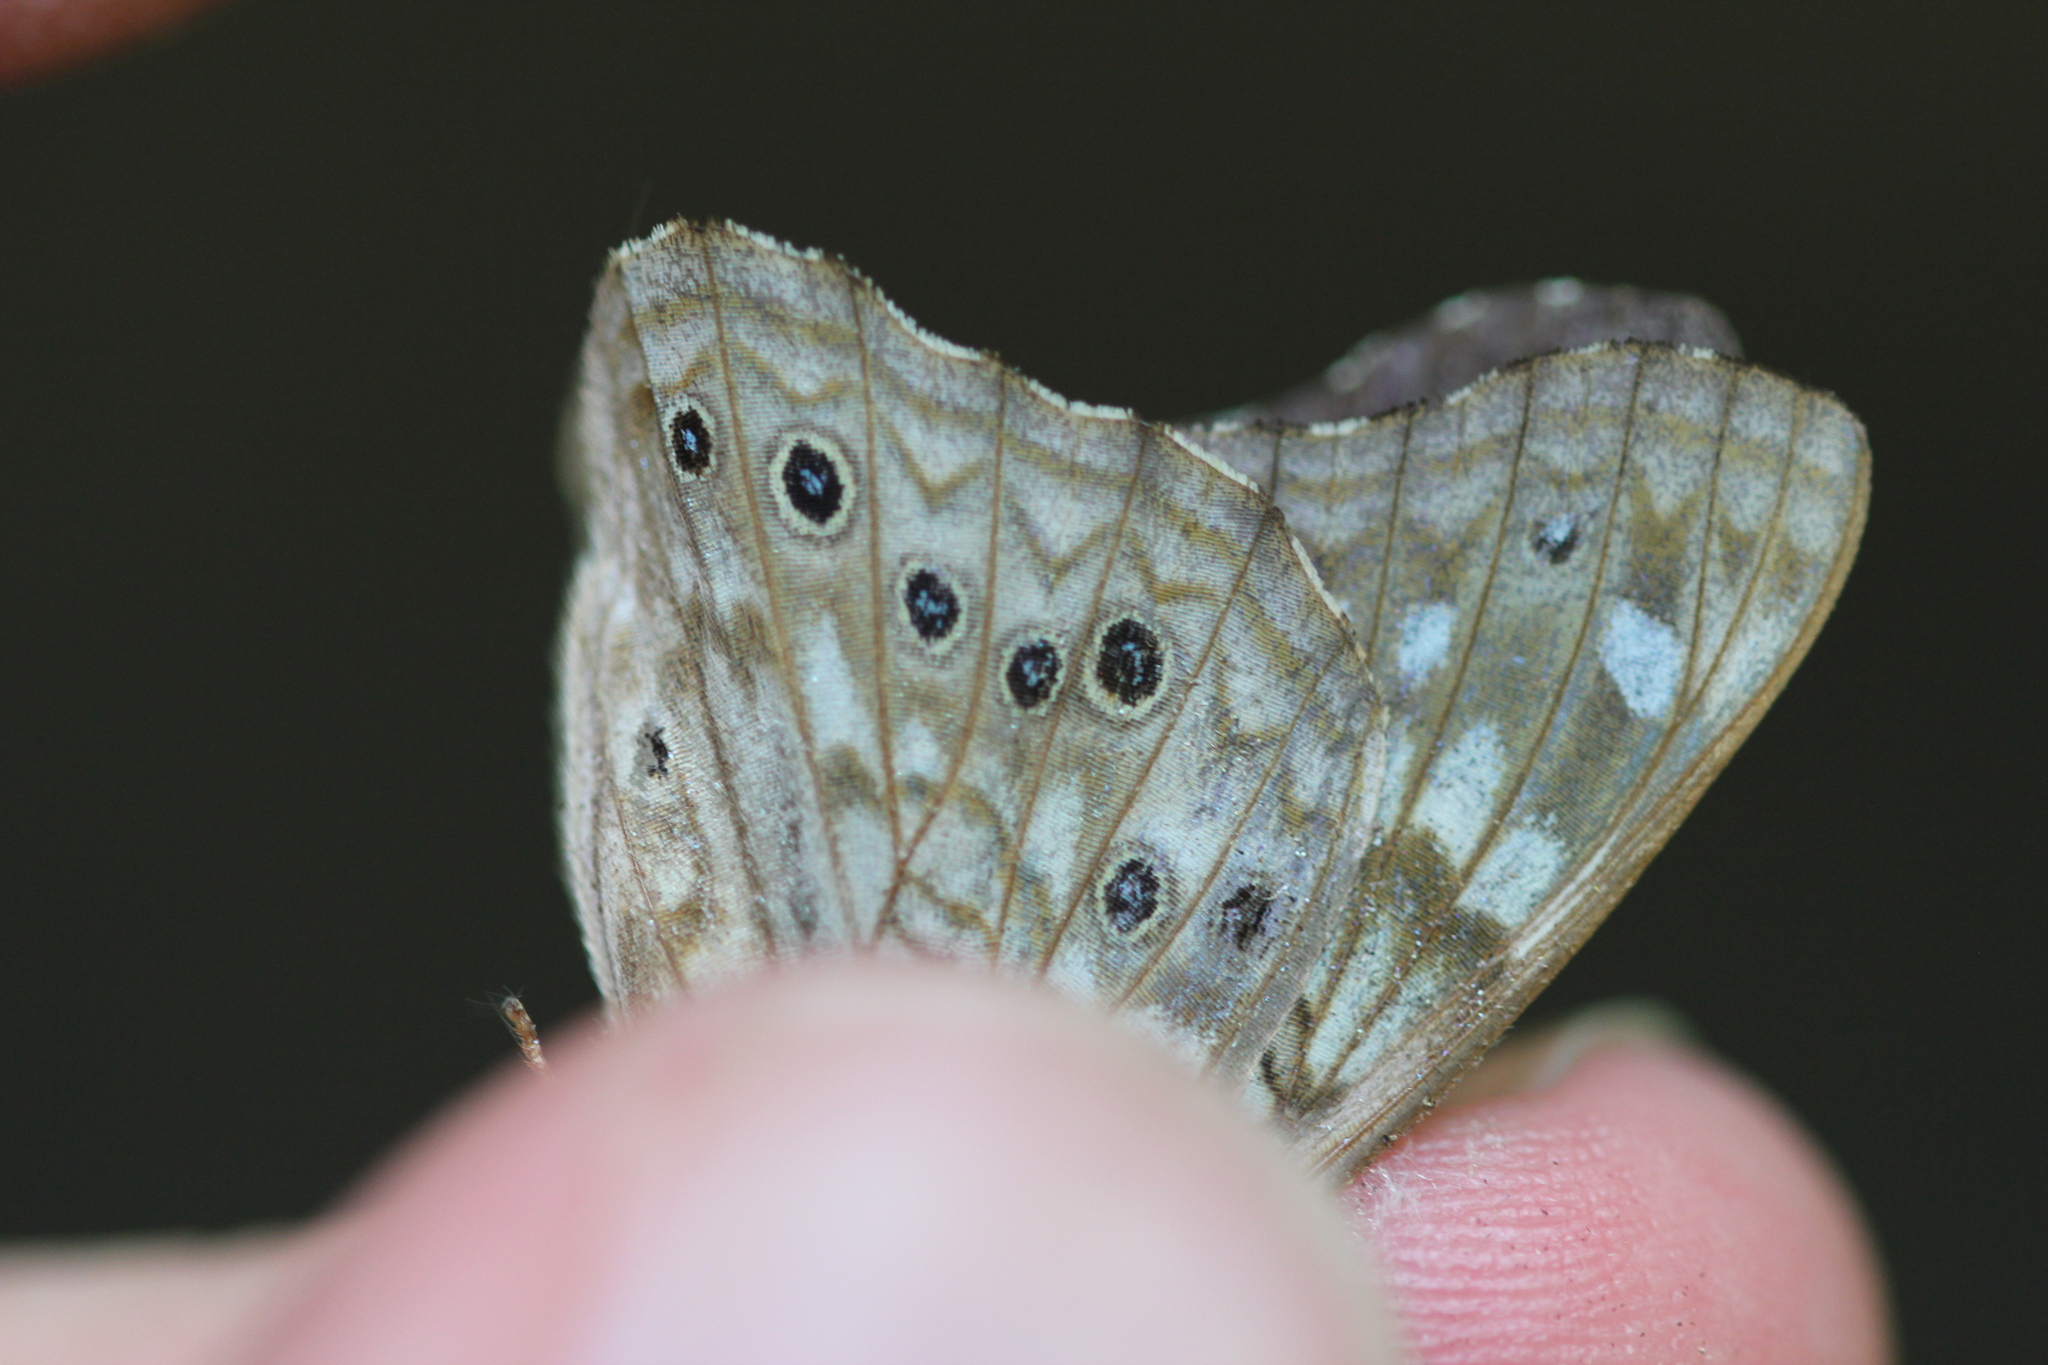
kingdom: Animalia
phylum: Arthropoda
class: Insecta
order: Lepidoptera
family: Nymphalidae
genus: Asterocampa
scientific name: Asterocampa celtis
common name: Hackberry emperor
